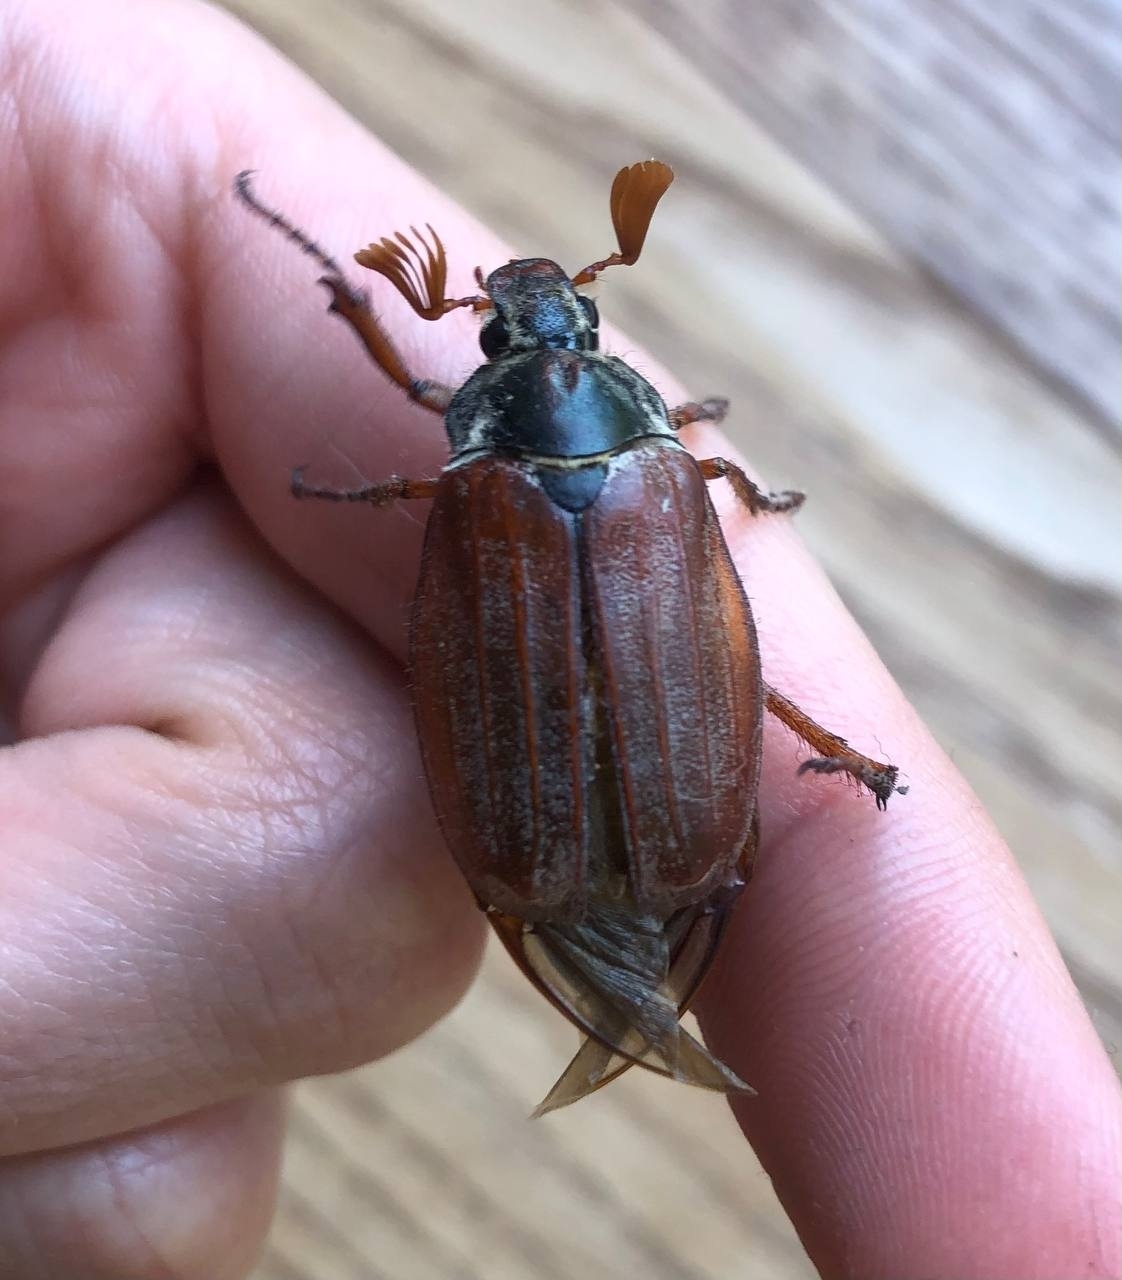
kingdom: Animalia
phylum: Arthropoda
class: Insecta
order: Coleoptera
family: Scarabaeidae
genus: Melolontha
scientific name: Melolontha melolontha
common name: Cockchafer maybeetle
